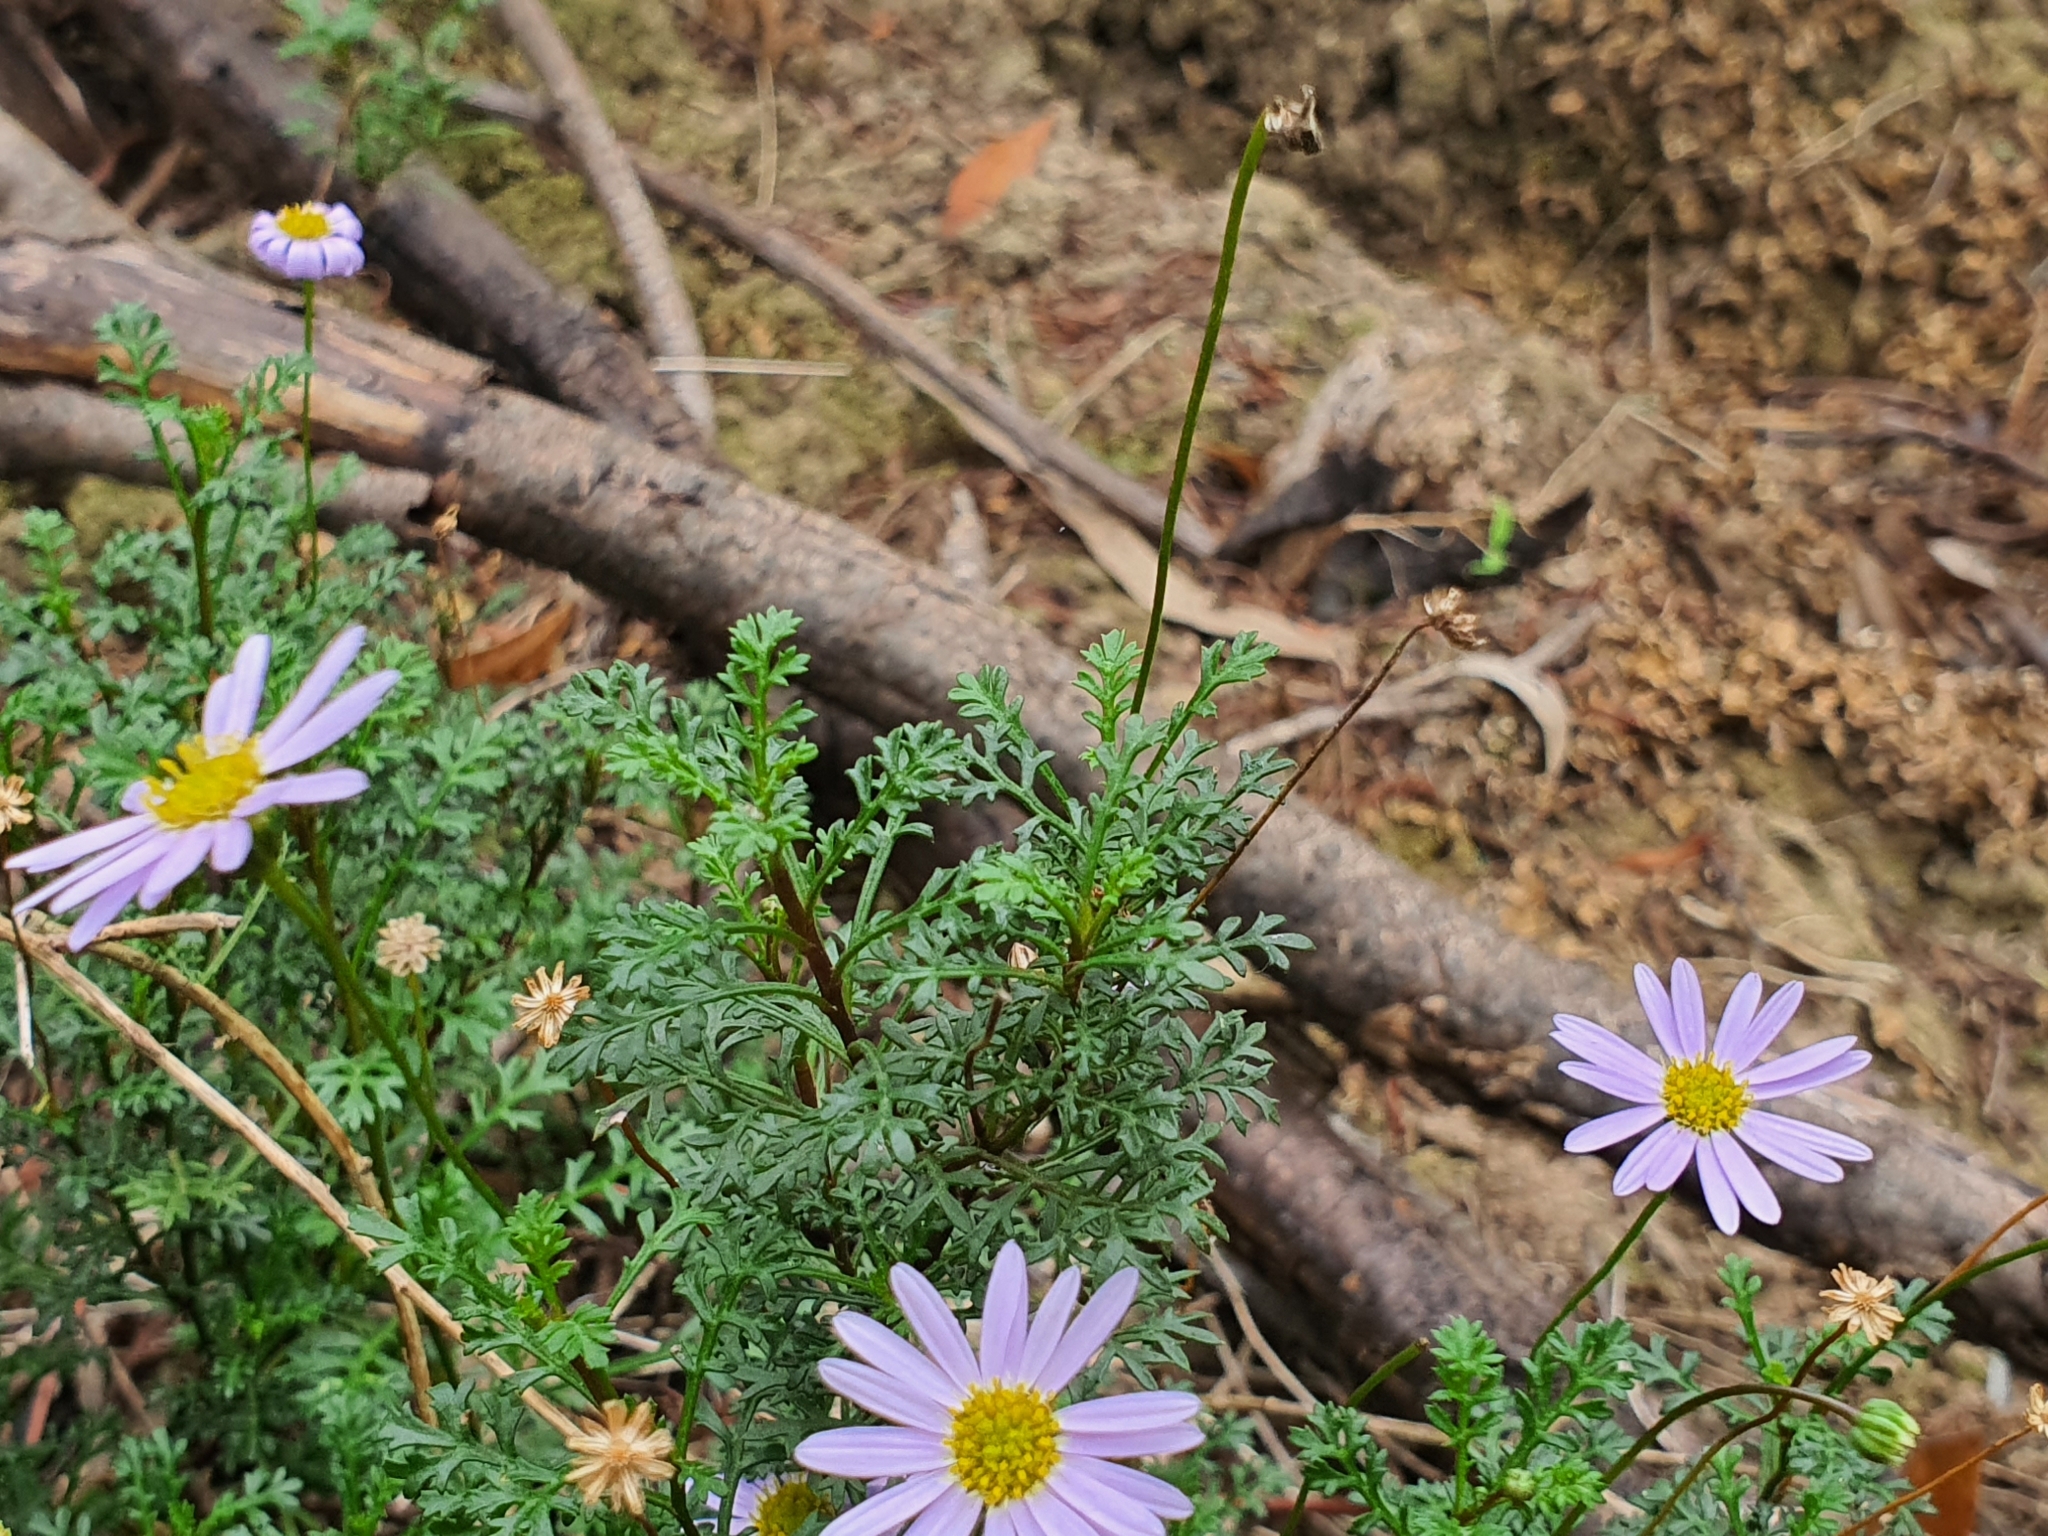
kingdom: Plantae
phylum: Tracheophyta
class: Magnoliopsida
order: Asterales
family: Asteraceae
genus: Brachyscome
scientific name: Brachyscome multifida
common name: Cut-leaf daisy
